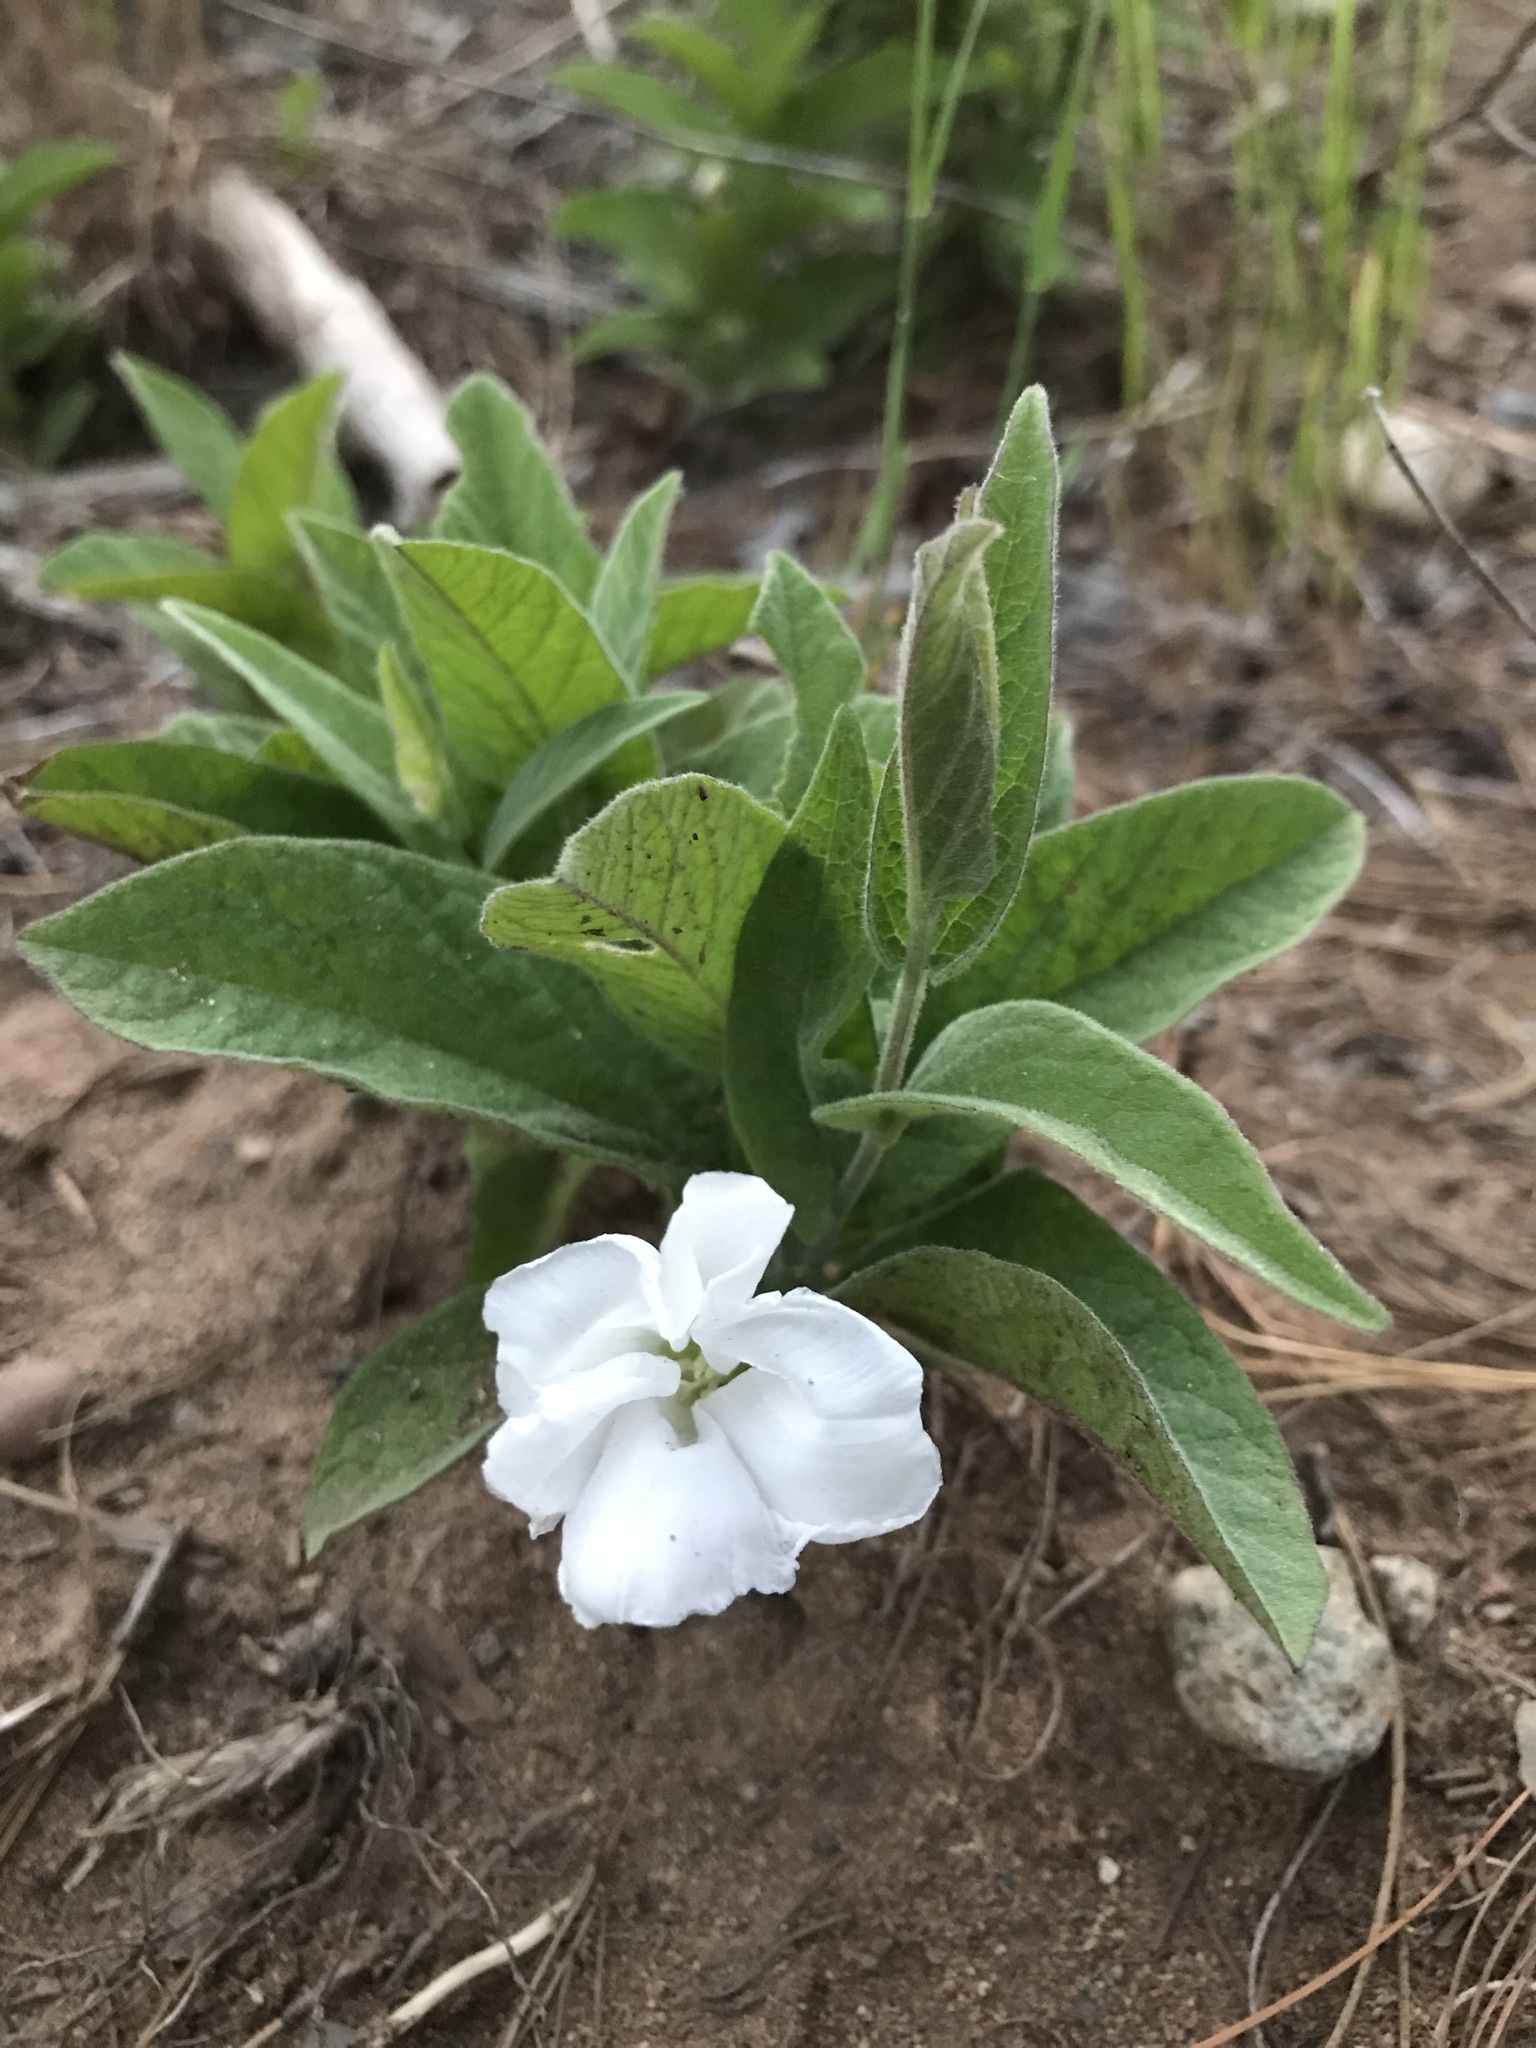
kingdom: Plantae
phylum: Tracheophyta
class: Magnoliopsida
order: Solanales
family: Convolvulaceae
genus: Calystegia
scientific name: Calystegia spithamaea
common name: Dwarf bindweed
